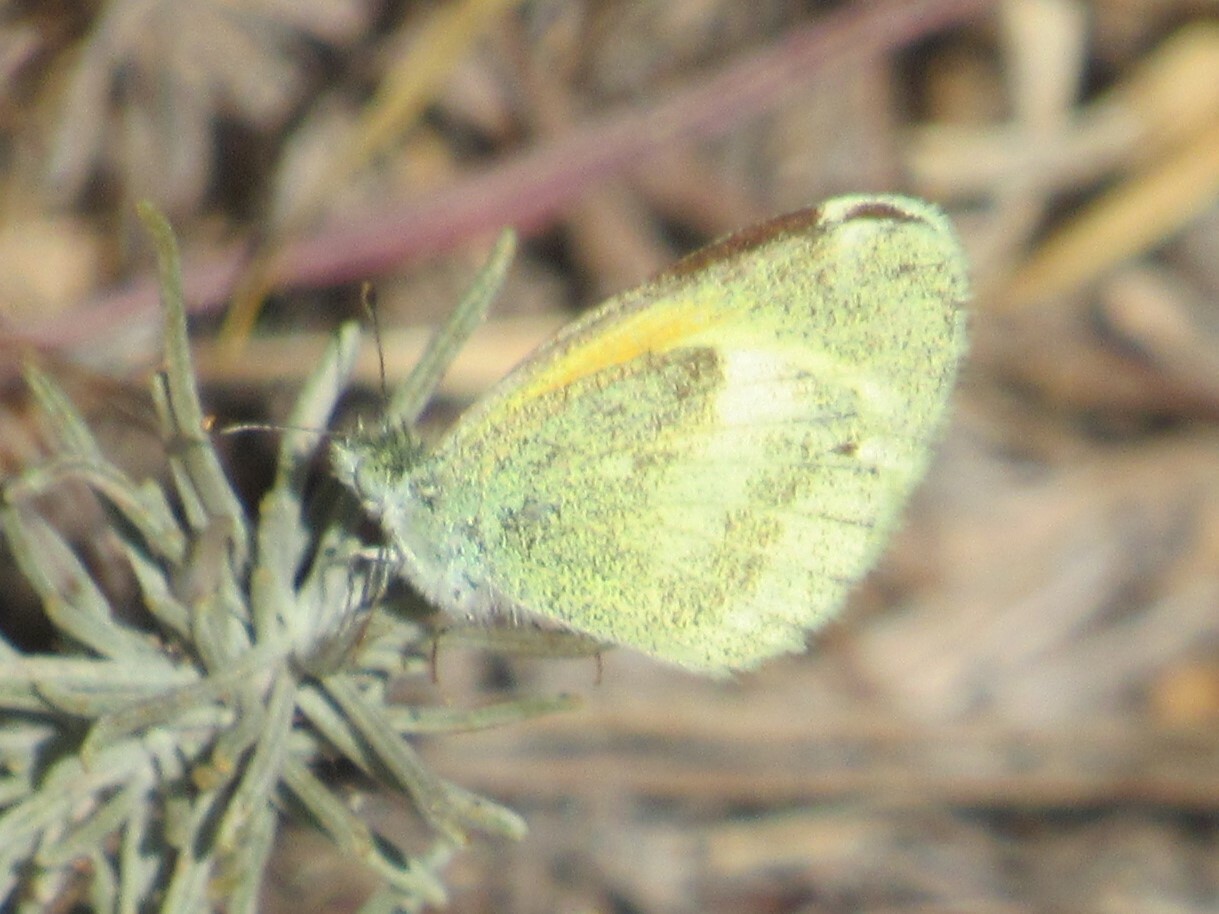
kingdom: Animalia
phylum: Arthropoda
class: Insecta
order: Lepidoptera
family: Pieridae
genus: Nathalis
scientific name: Nathalis iole
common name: Dainty sulphur
